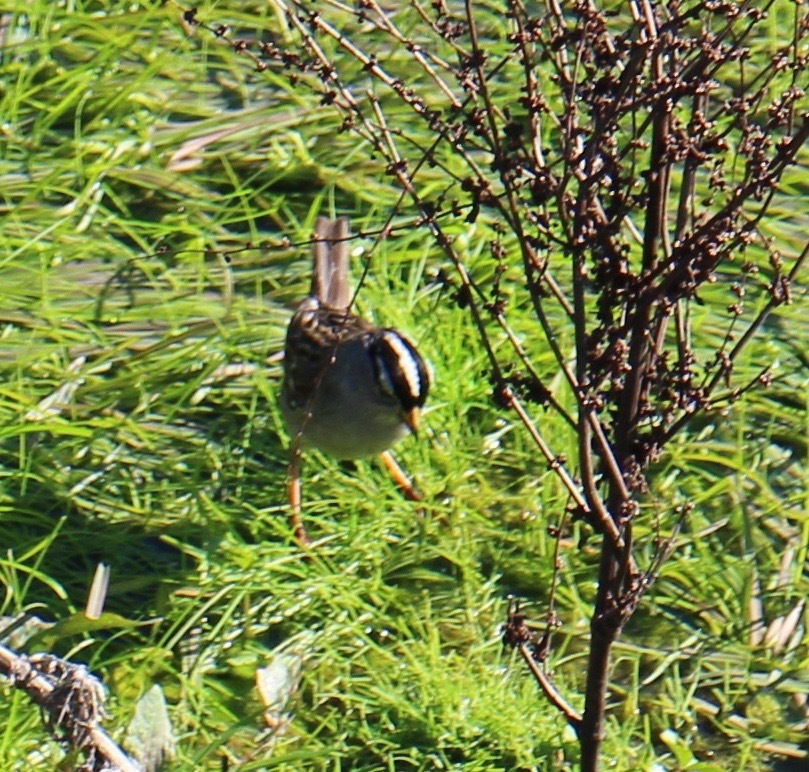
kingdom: Animalia
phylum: Chordata
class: Aves
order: Passeriformes
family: Passerellidae
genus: Zonotrichia
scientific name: Zonotrichia leucophrys
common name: White-crowned sparrow
